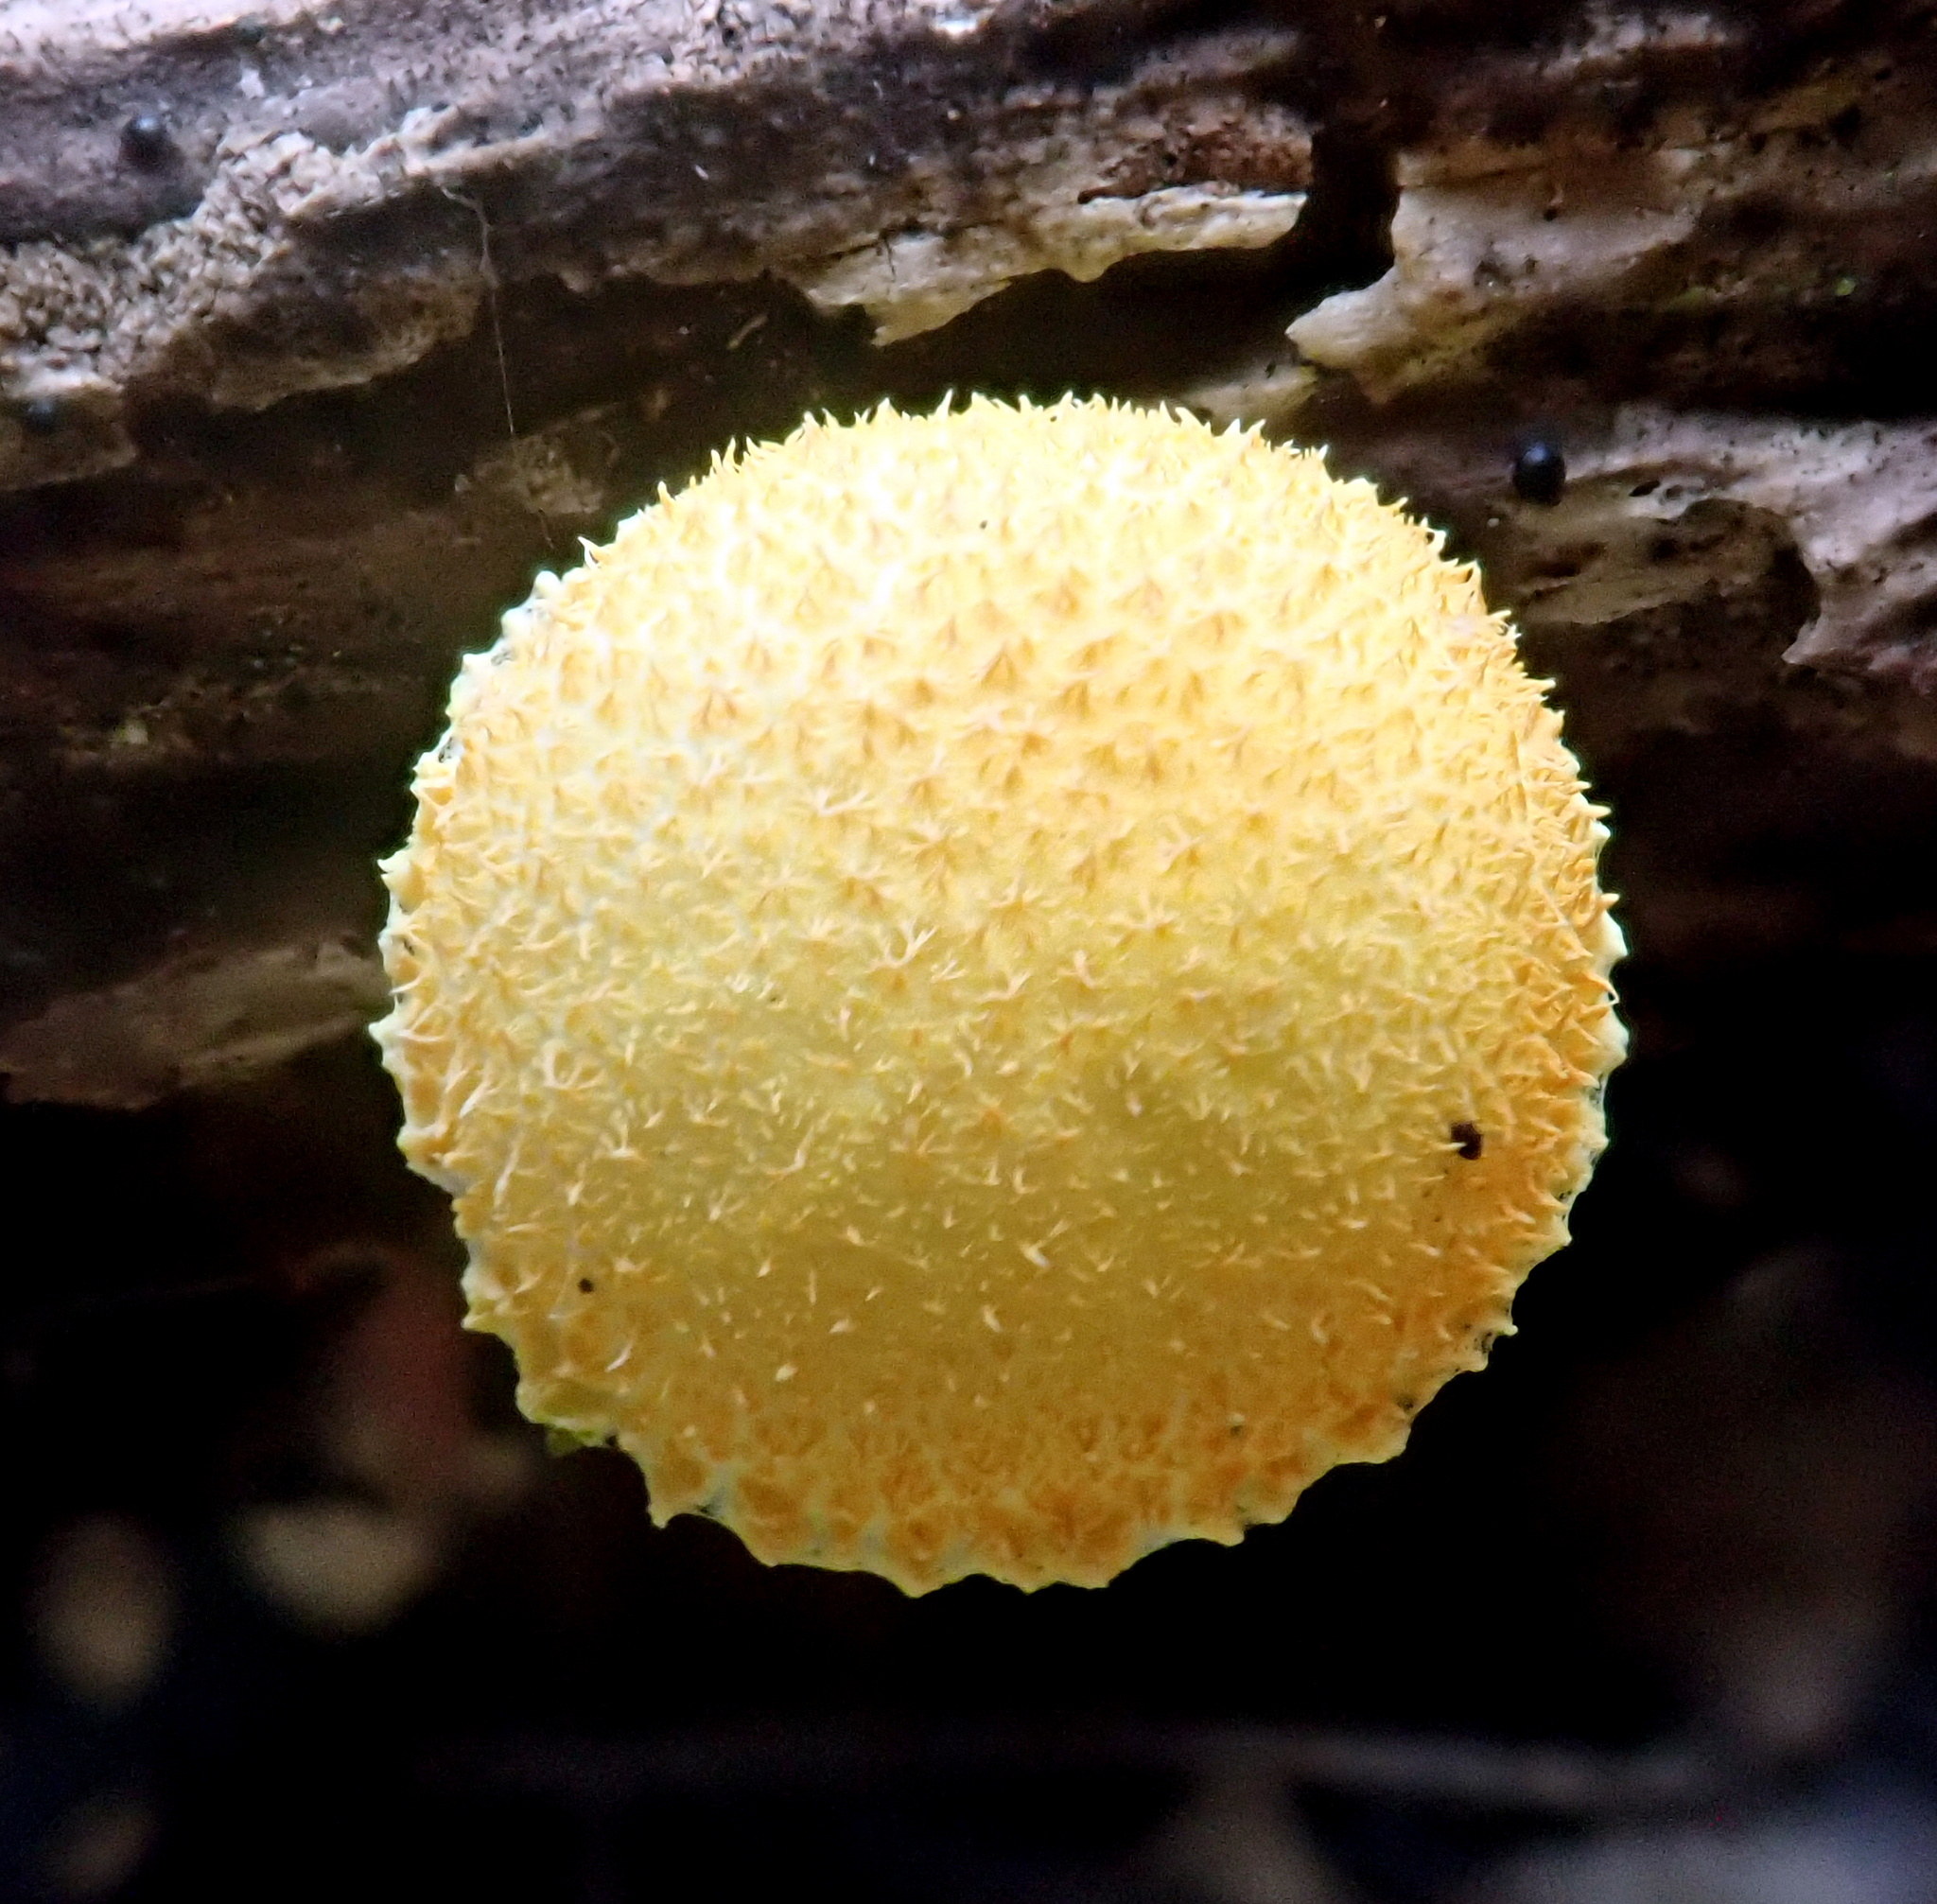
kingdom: Fungi
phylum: Basidiomycota
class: Agaricomycetes
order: Agaricales
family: Physalacriaceae
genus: Cyptotrama
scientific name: Cyptotrama asprata
